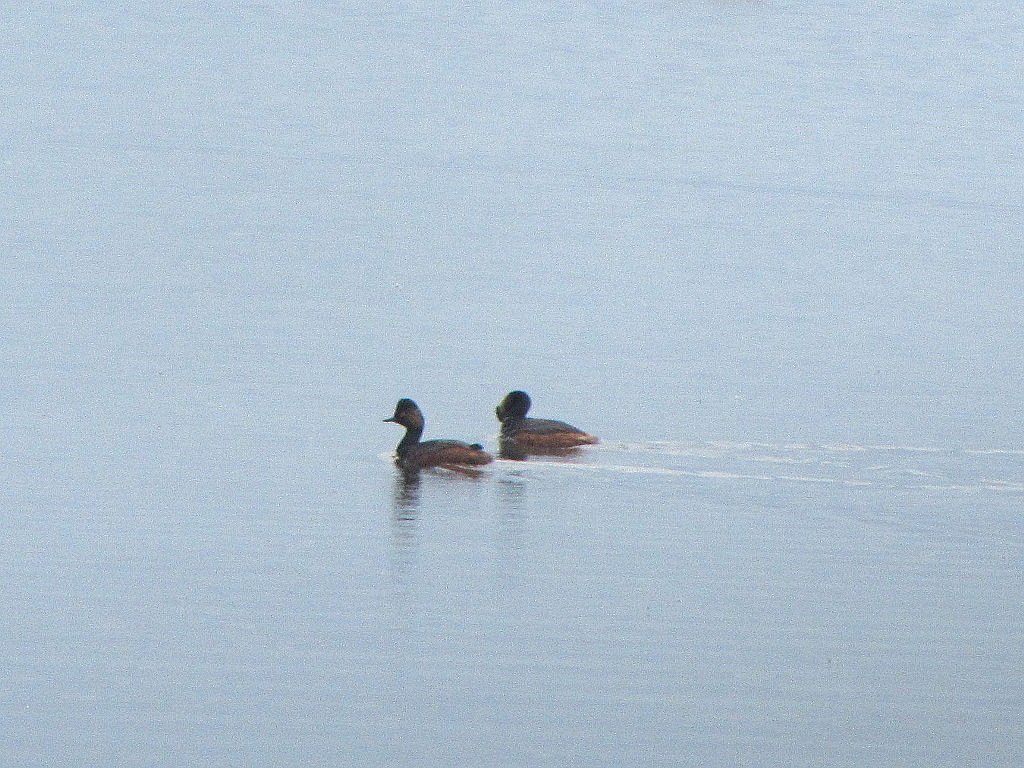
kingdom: Animalia
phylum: Chordata
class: Aves
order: Podicipediformes
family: Podicipedidae
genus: Podiceps
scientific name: Podiceps nigricollis
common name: Black-necked grebe
